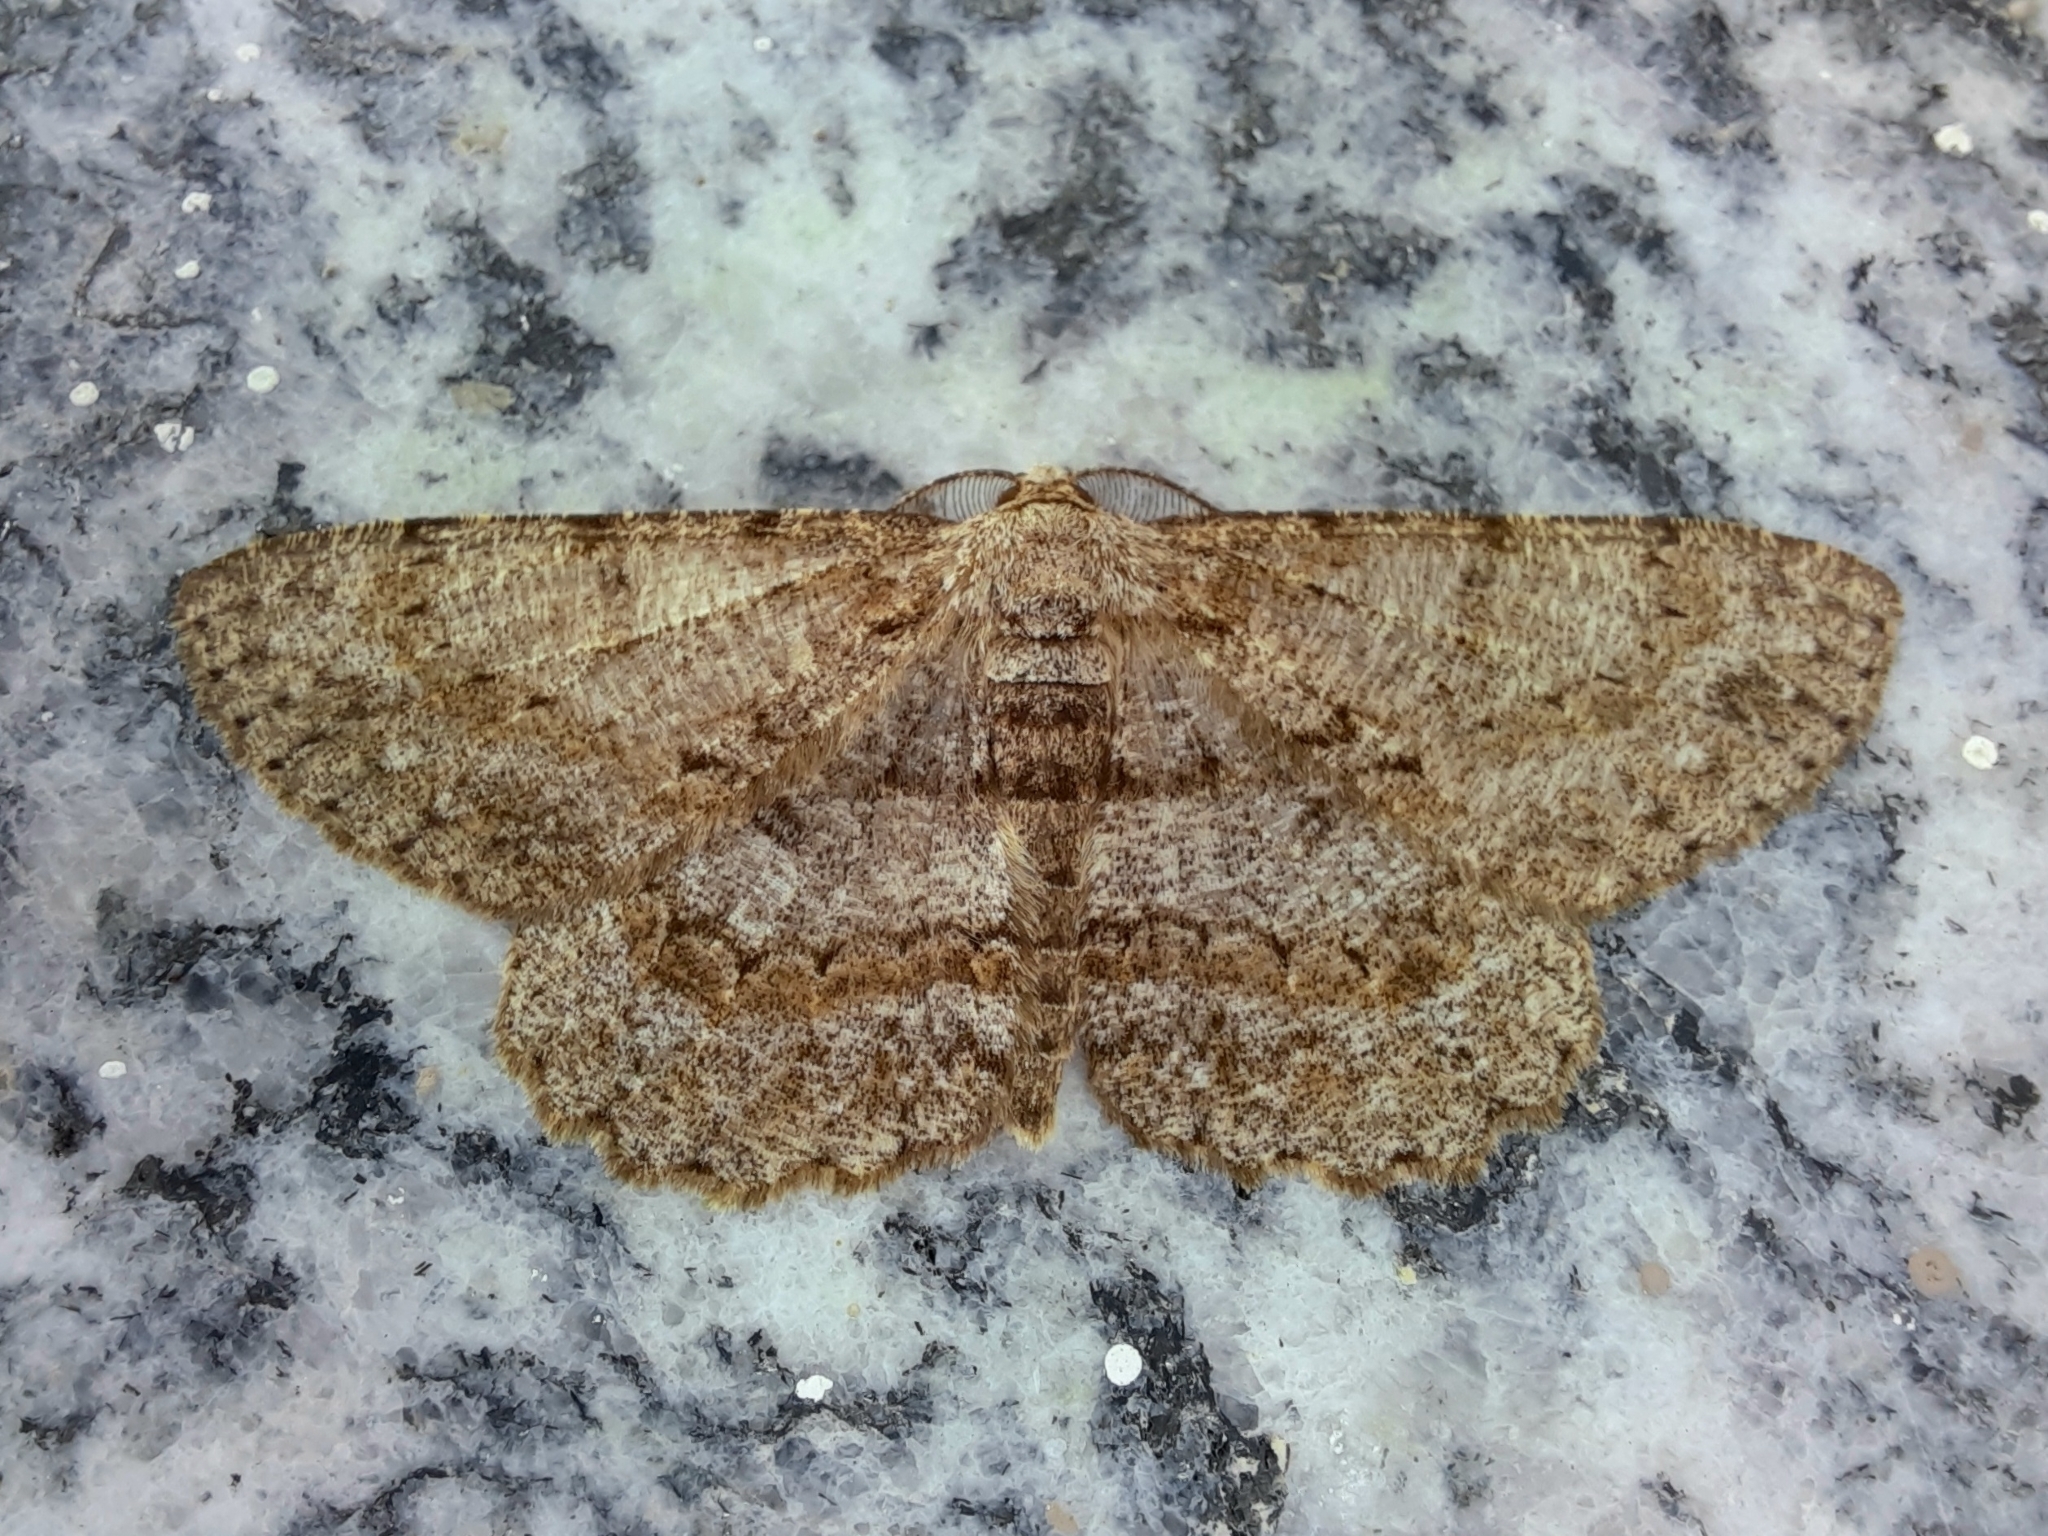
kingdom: Animalia
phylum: Arthropoda
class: Insecta
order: Lepidoptera
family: Geometridae
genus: Hypomecis
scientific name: Hypomecis punctinalis
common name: Pale oak beauty
